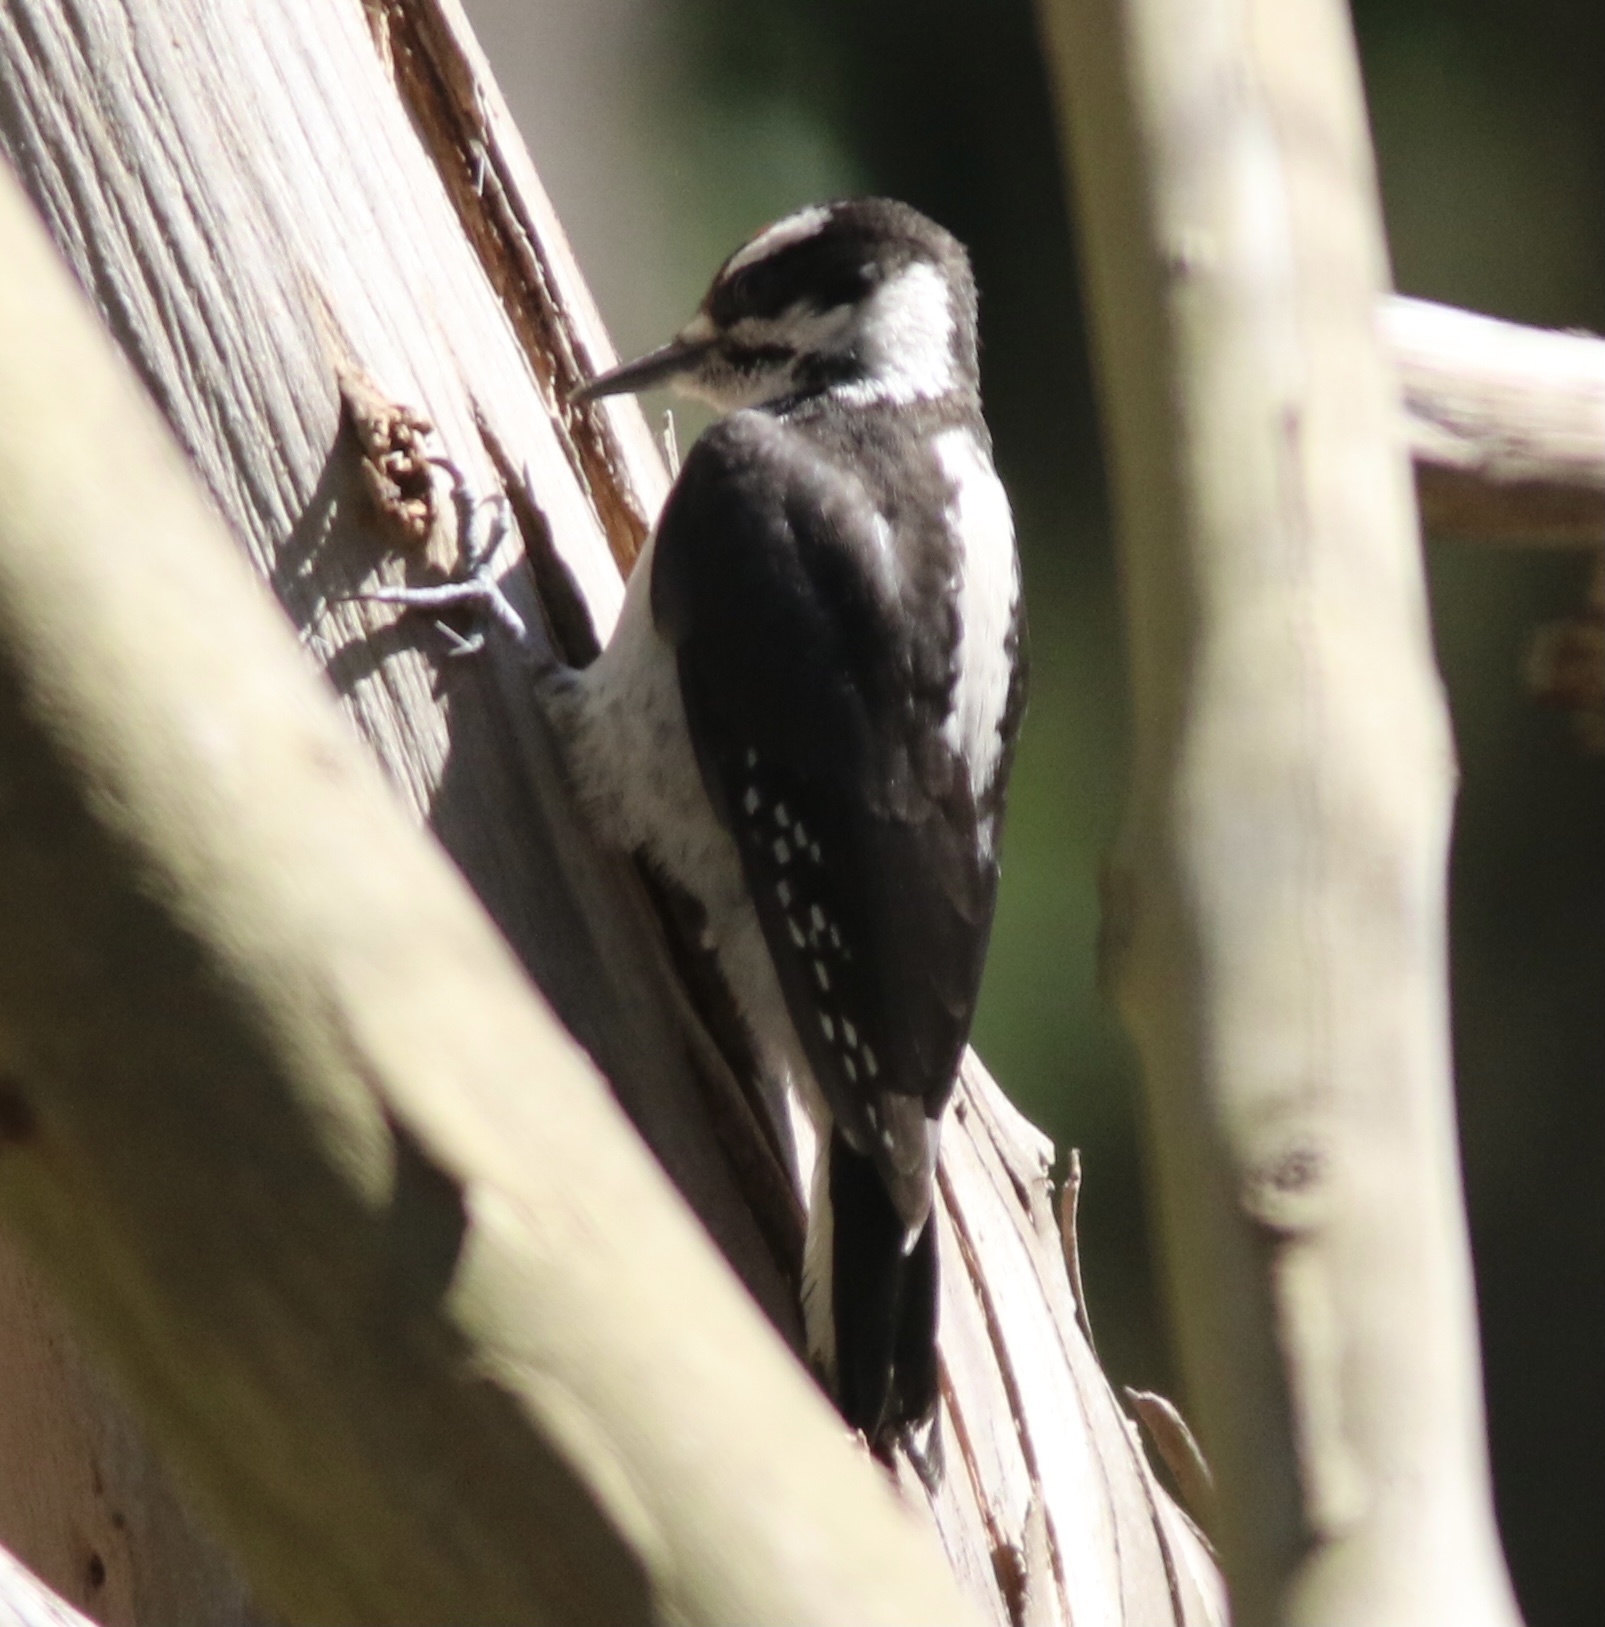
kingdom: Animalia
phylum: Chordata
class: Aves
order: Piciformes
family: Picidae
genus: Leuconotopicus
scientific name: Leuconotopicus villosus
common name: Hairy woodpecker
